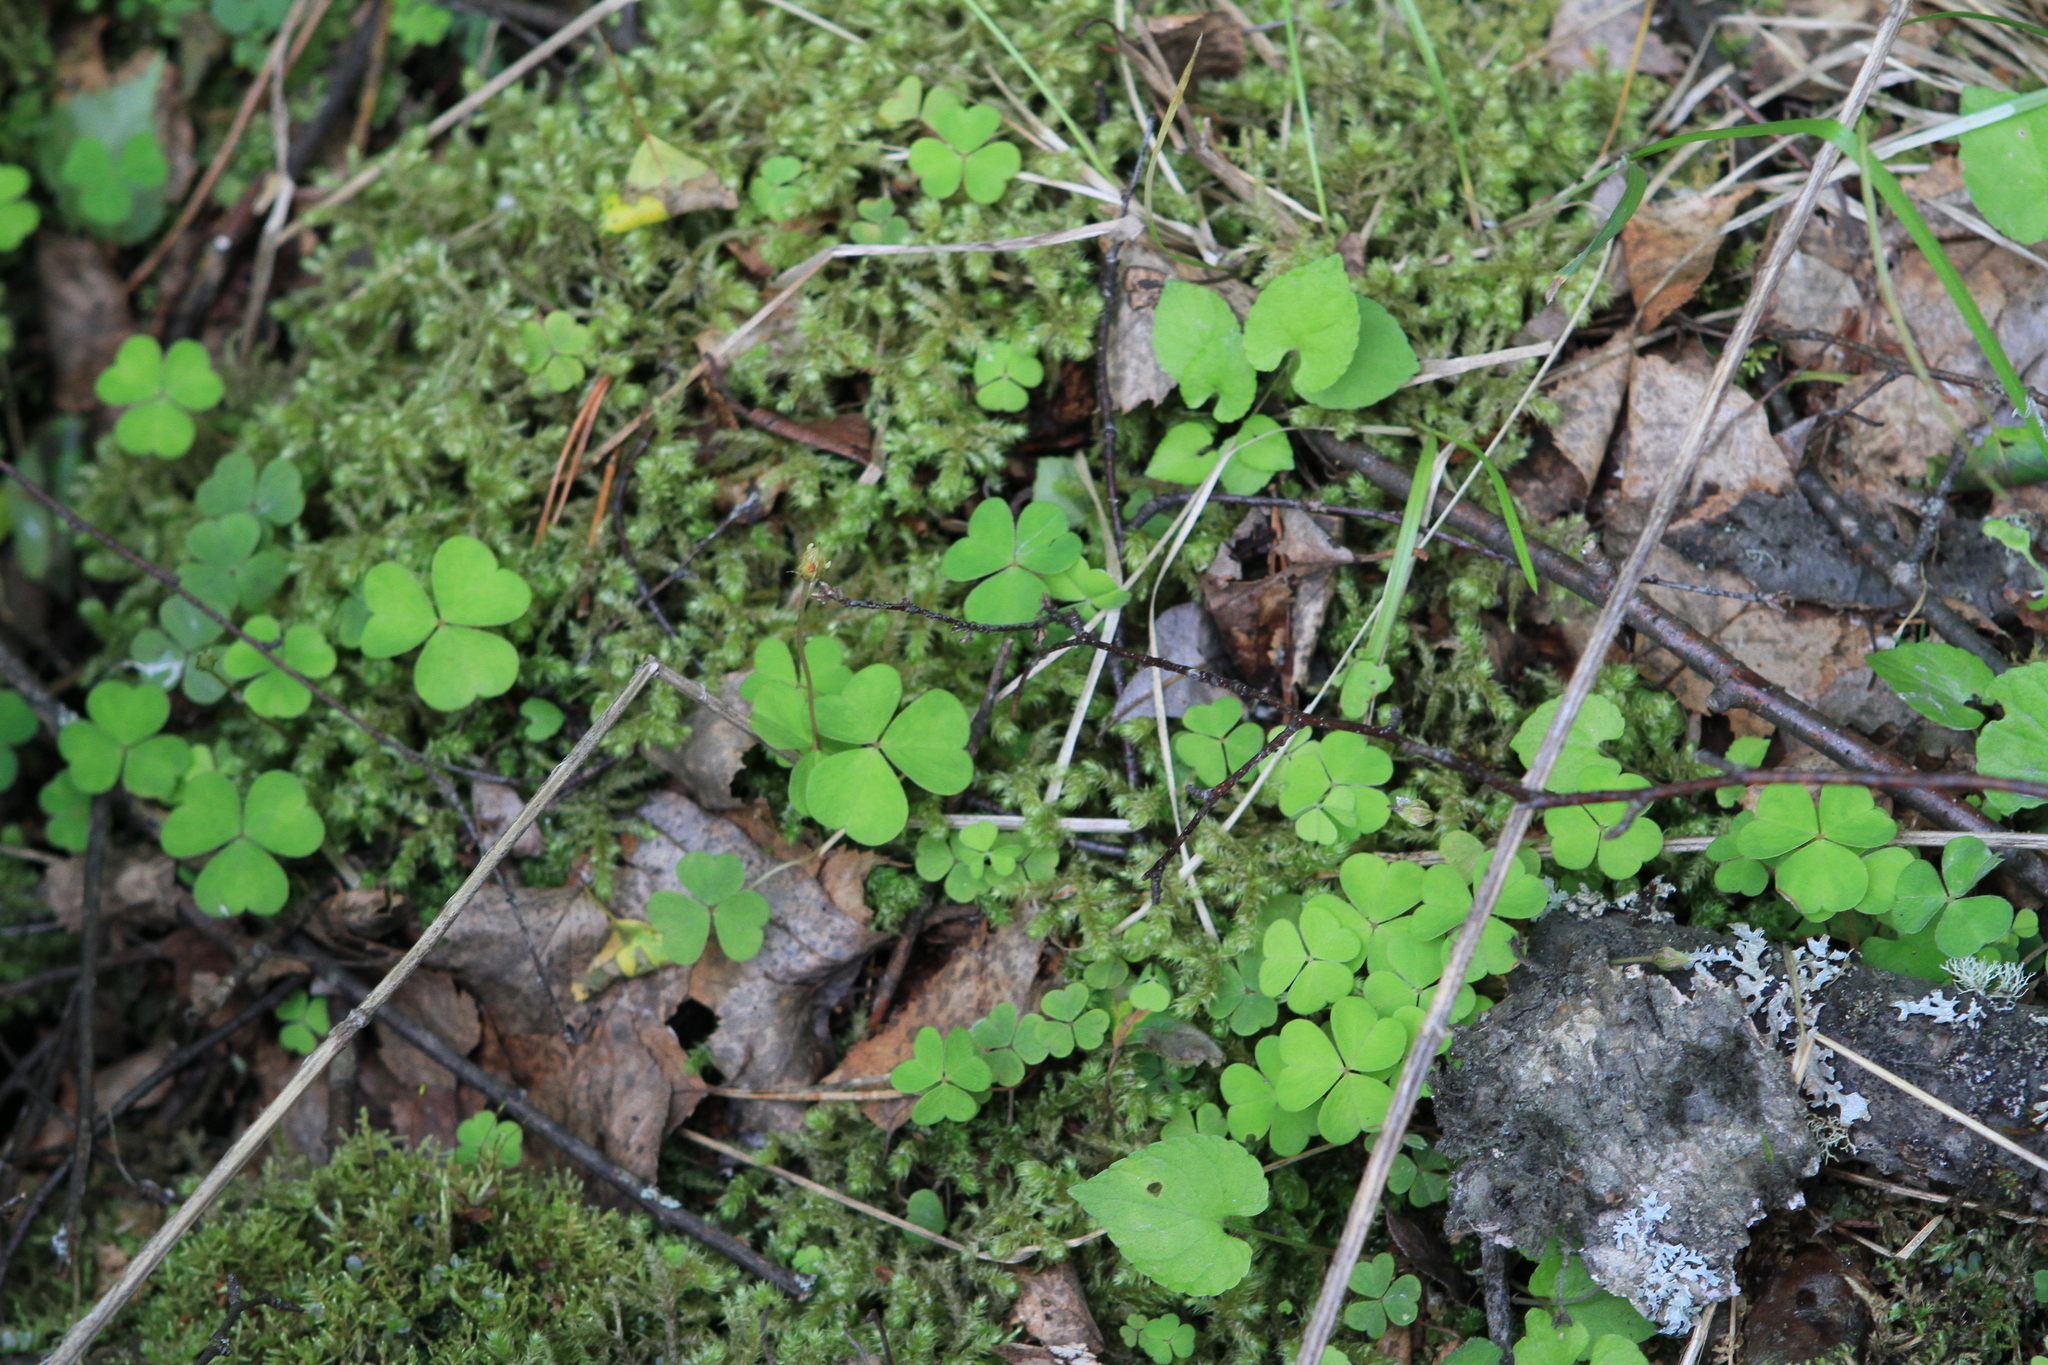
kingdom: Plantae
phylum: Tracheophyta
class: Magnoliopsida
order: Oxalidales
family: Oxalidaceae
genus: Oxalis
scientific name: Oxalis acetosella
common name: Wood-sorrel
